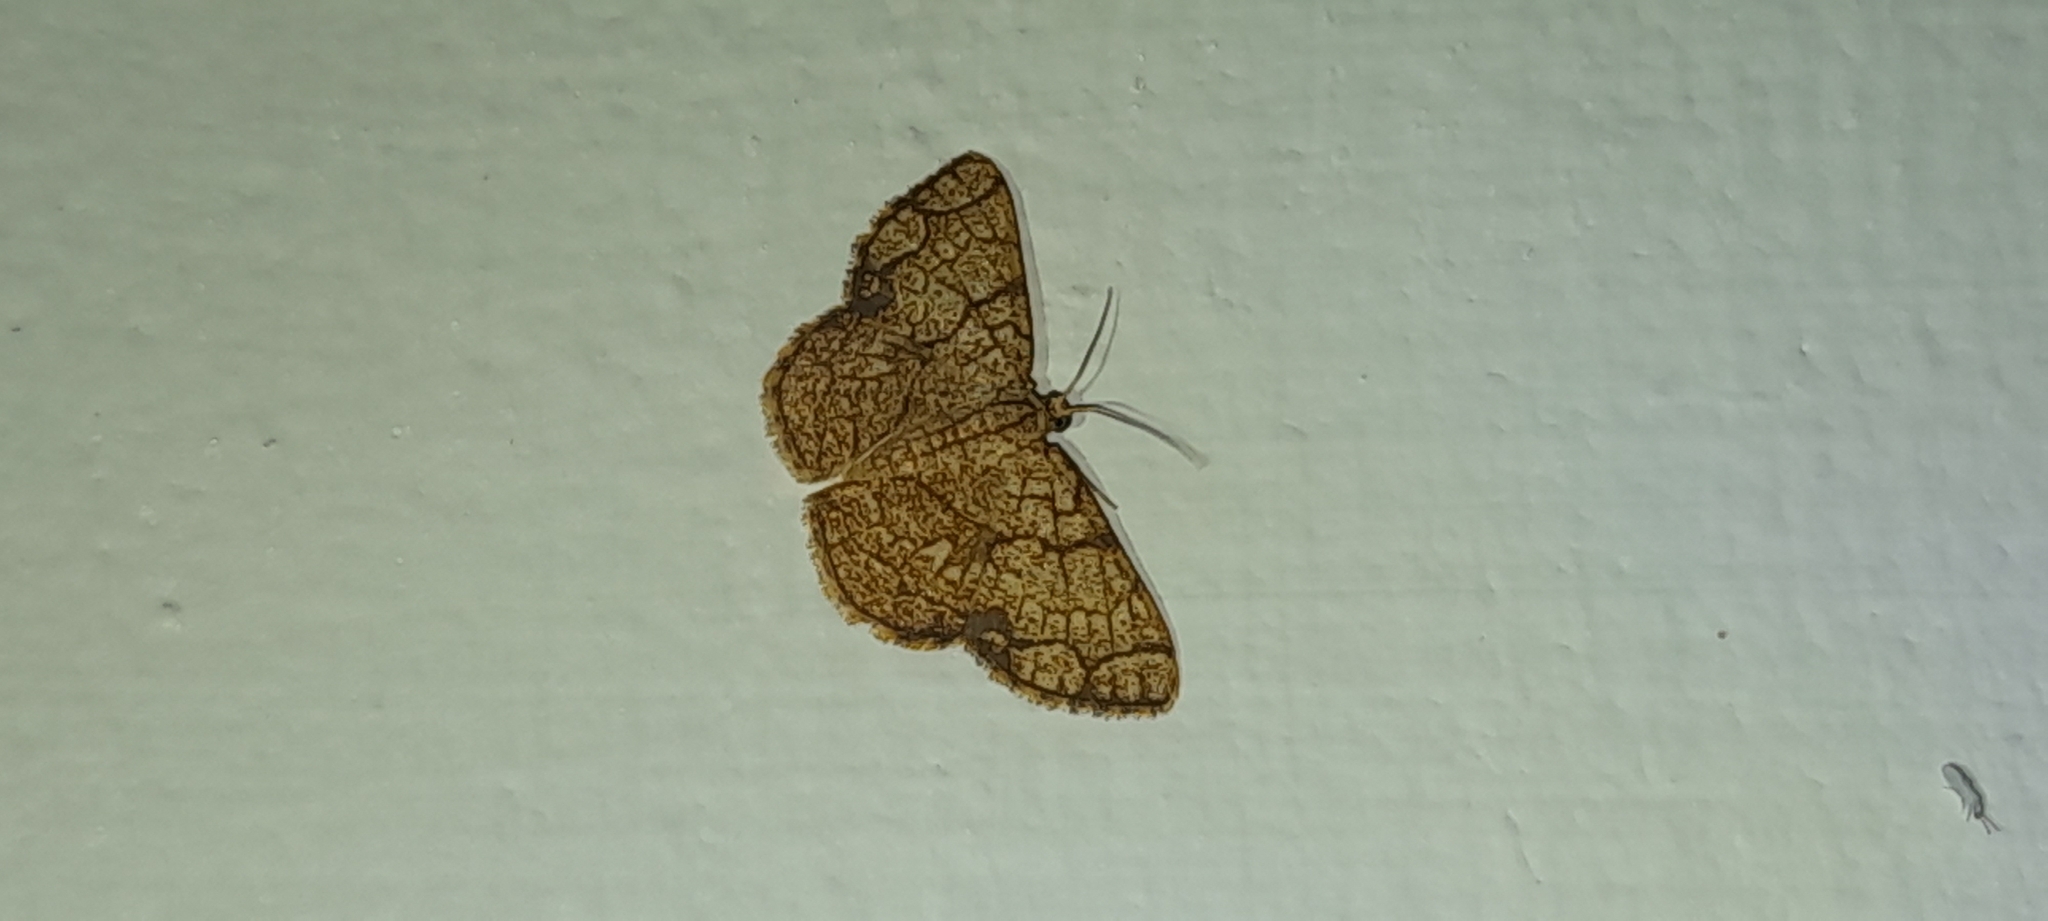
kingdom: Animalia
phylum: Arthropoda
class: Insecta
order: Lepidoptera
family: Geometridae
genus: Heterostegane
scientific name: Heterostegane subtessellata
